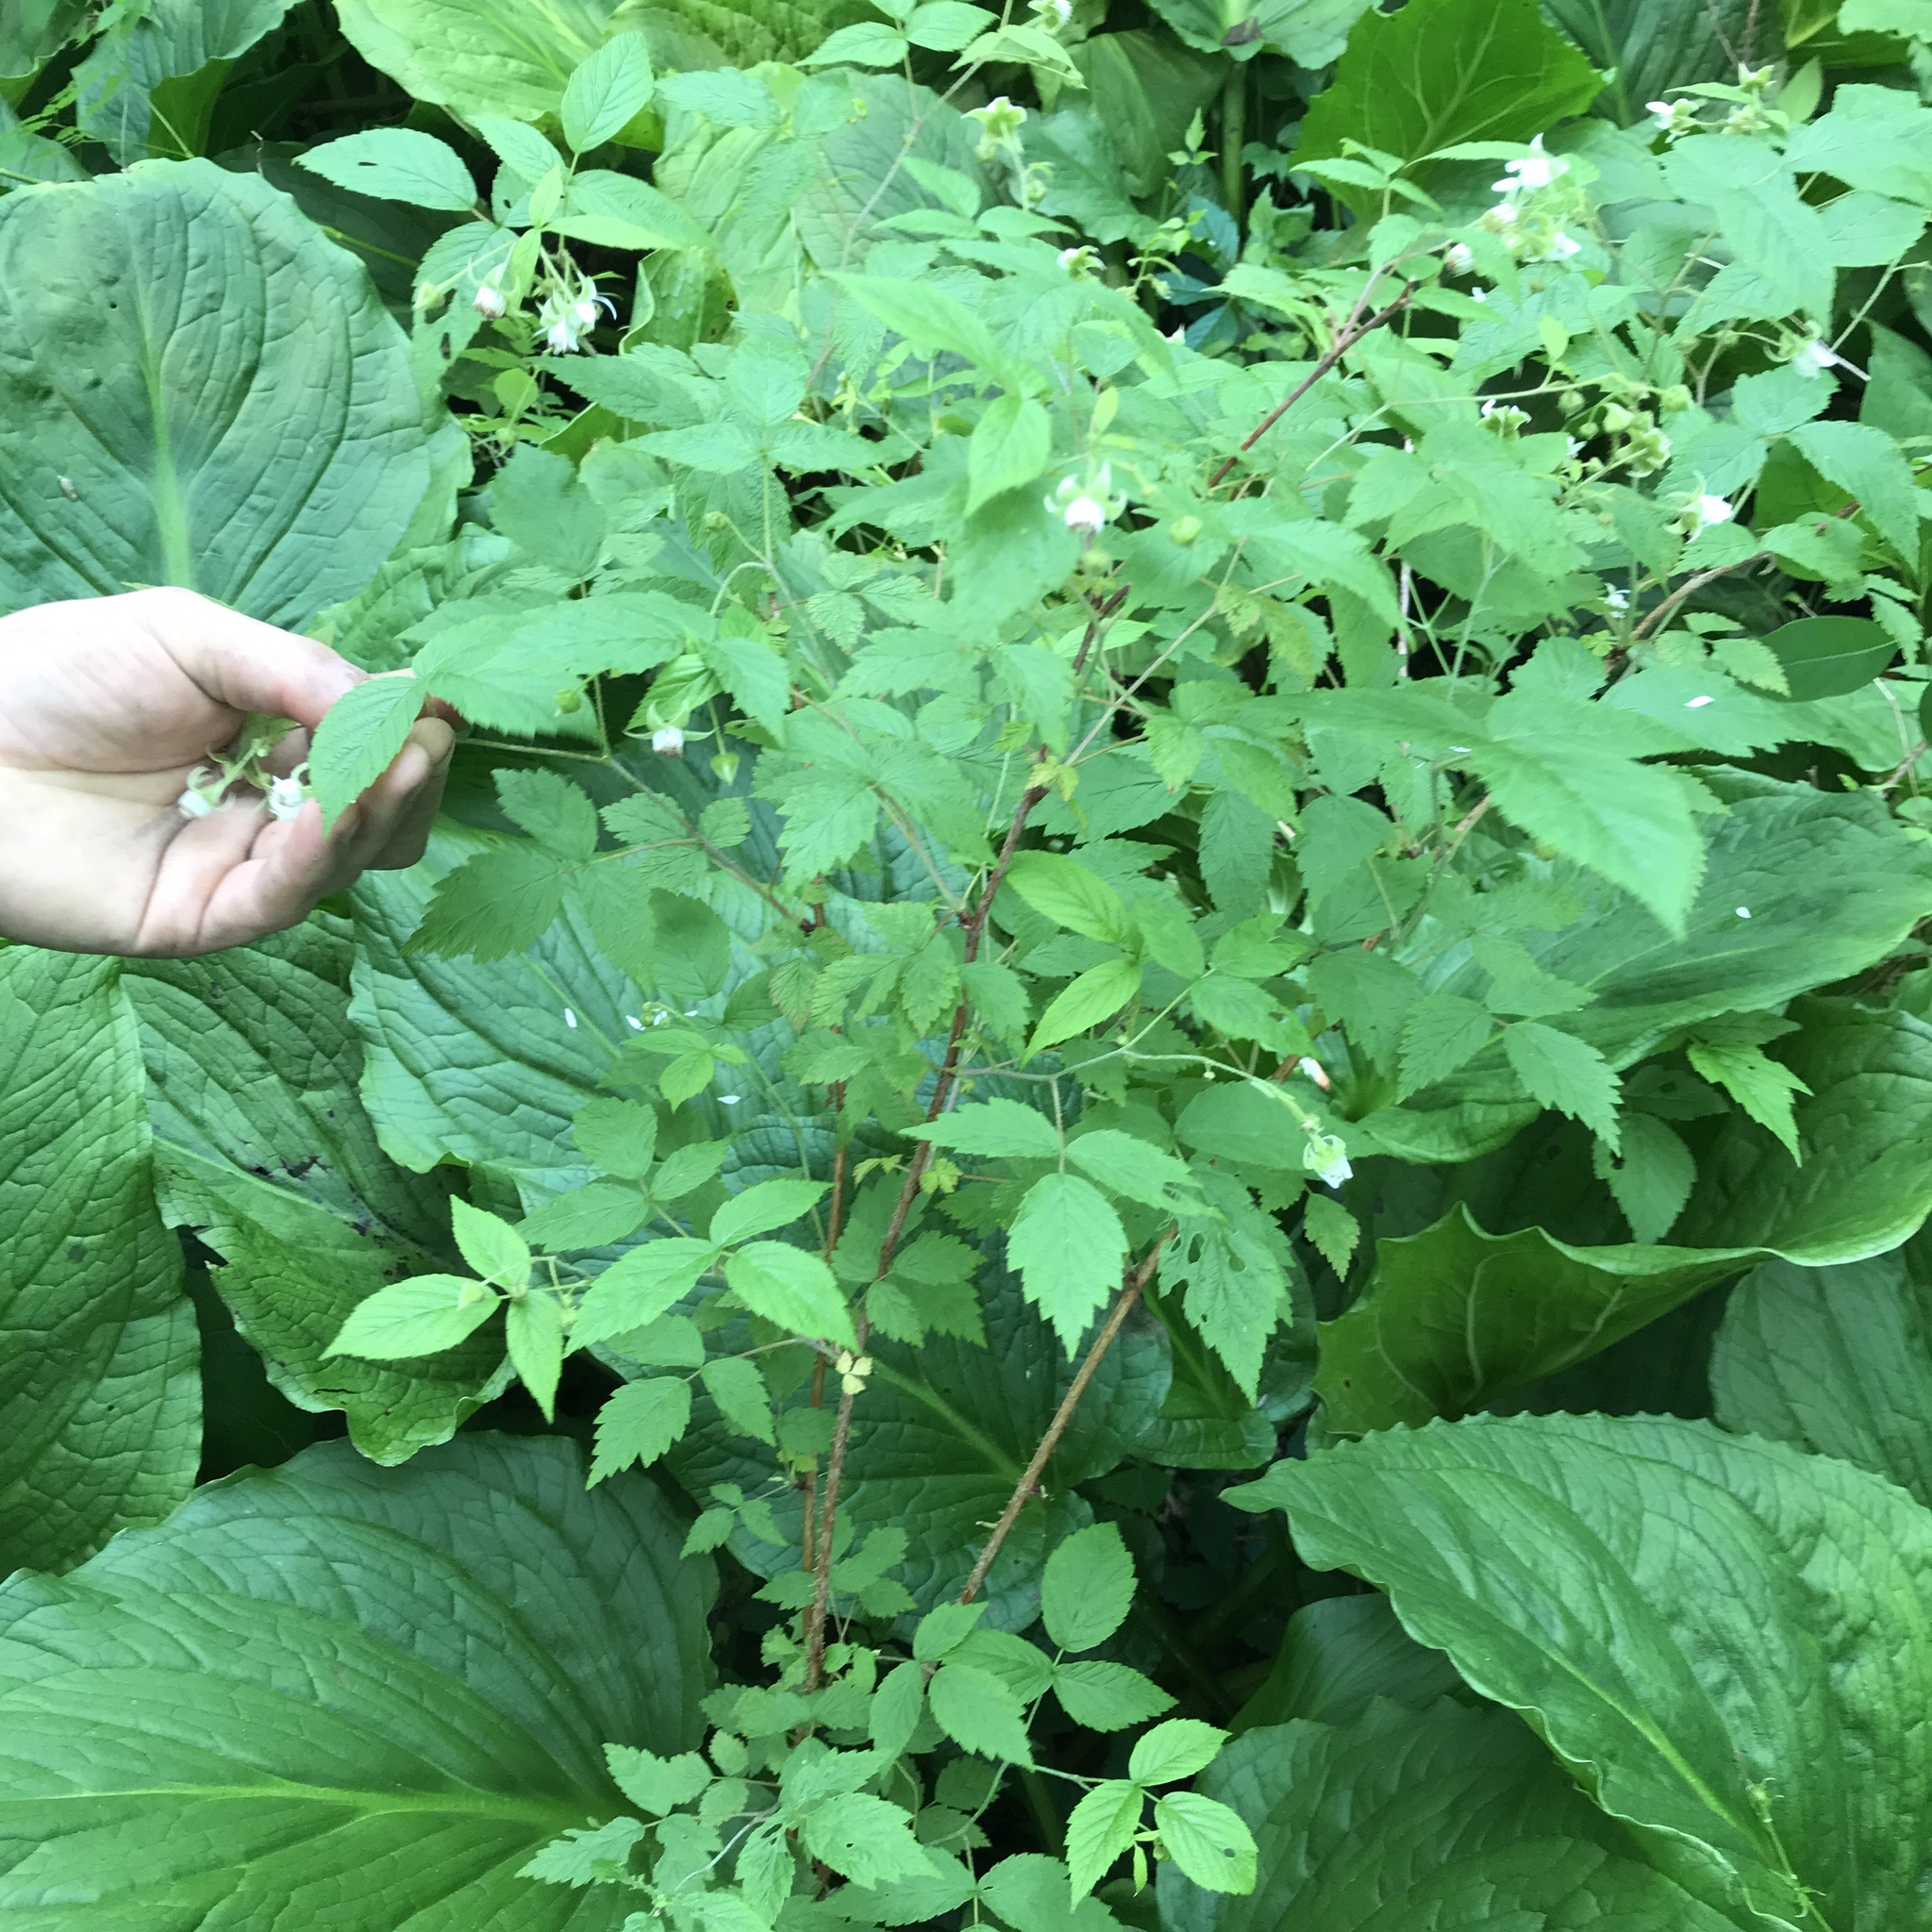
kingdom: Plantae
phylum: Tracheophyta
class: Magnoliopsida
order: Rosales
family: Rosaceae
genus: Rubus
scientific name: Rubus idaeus
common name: Raspberry
